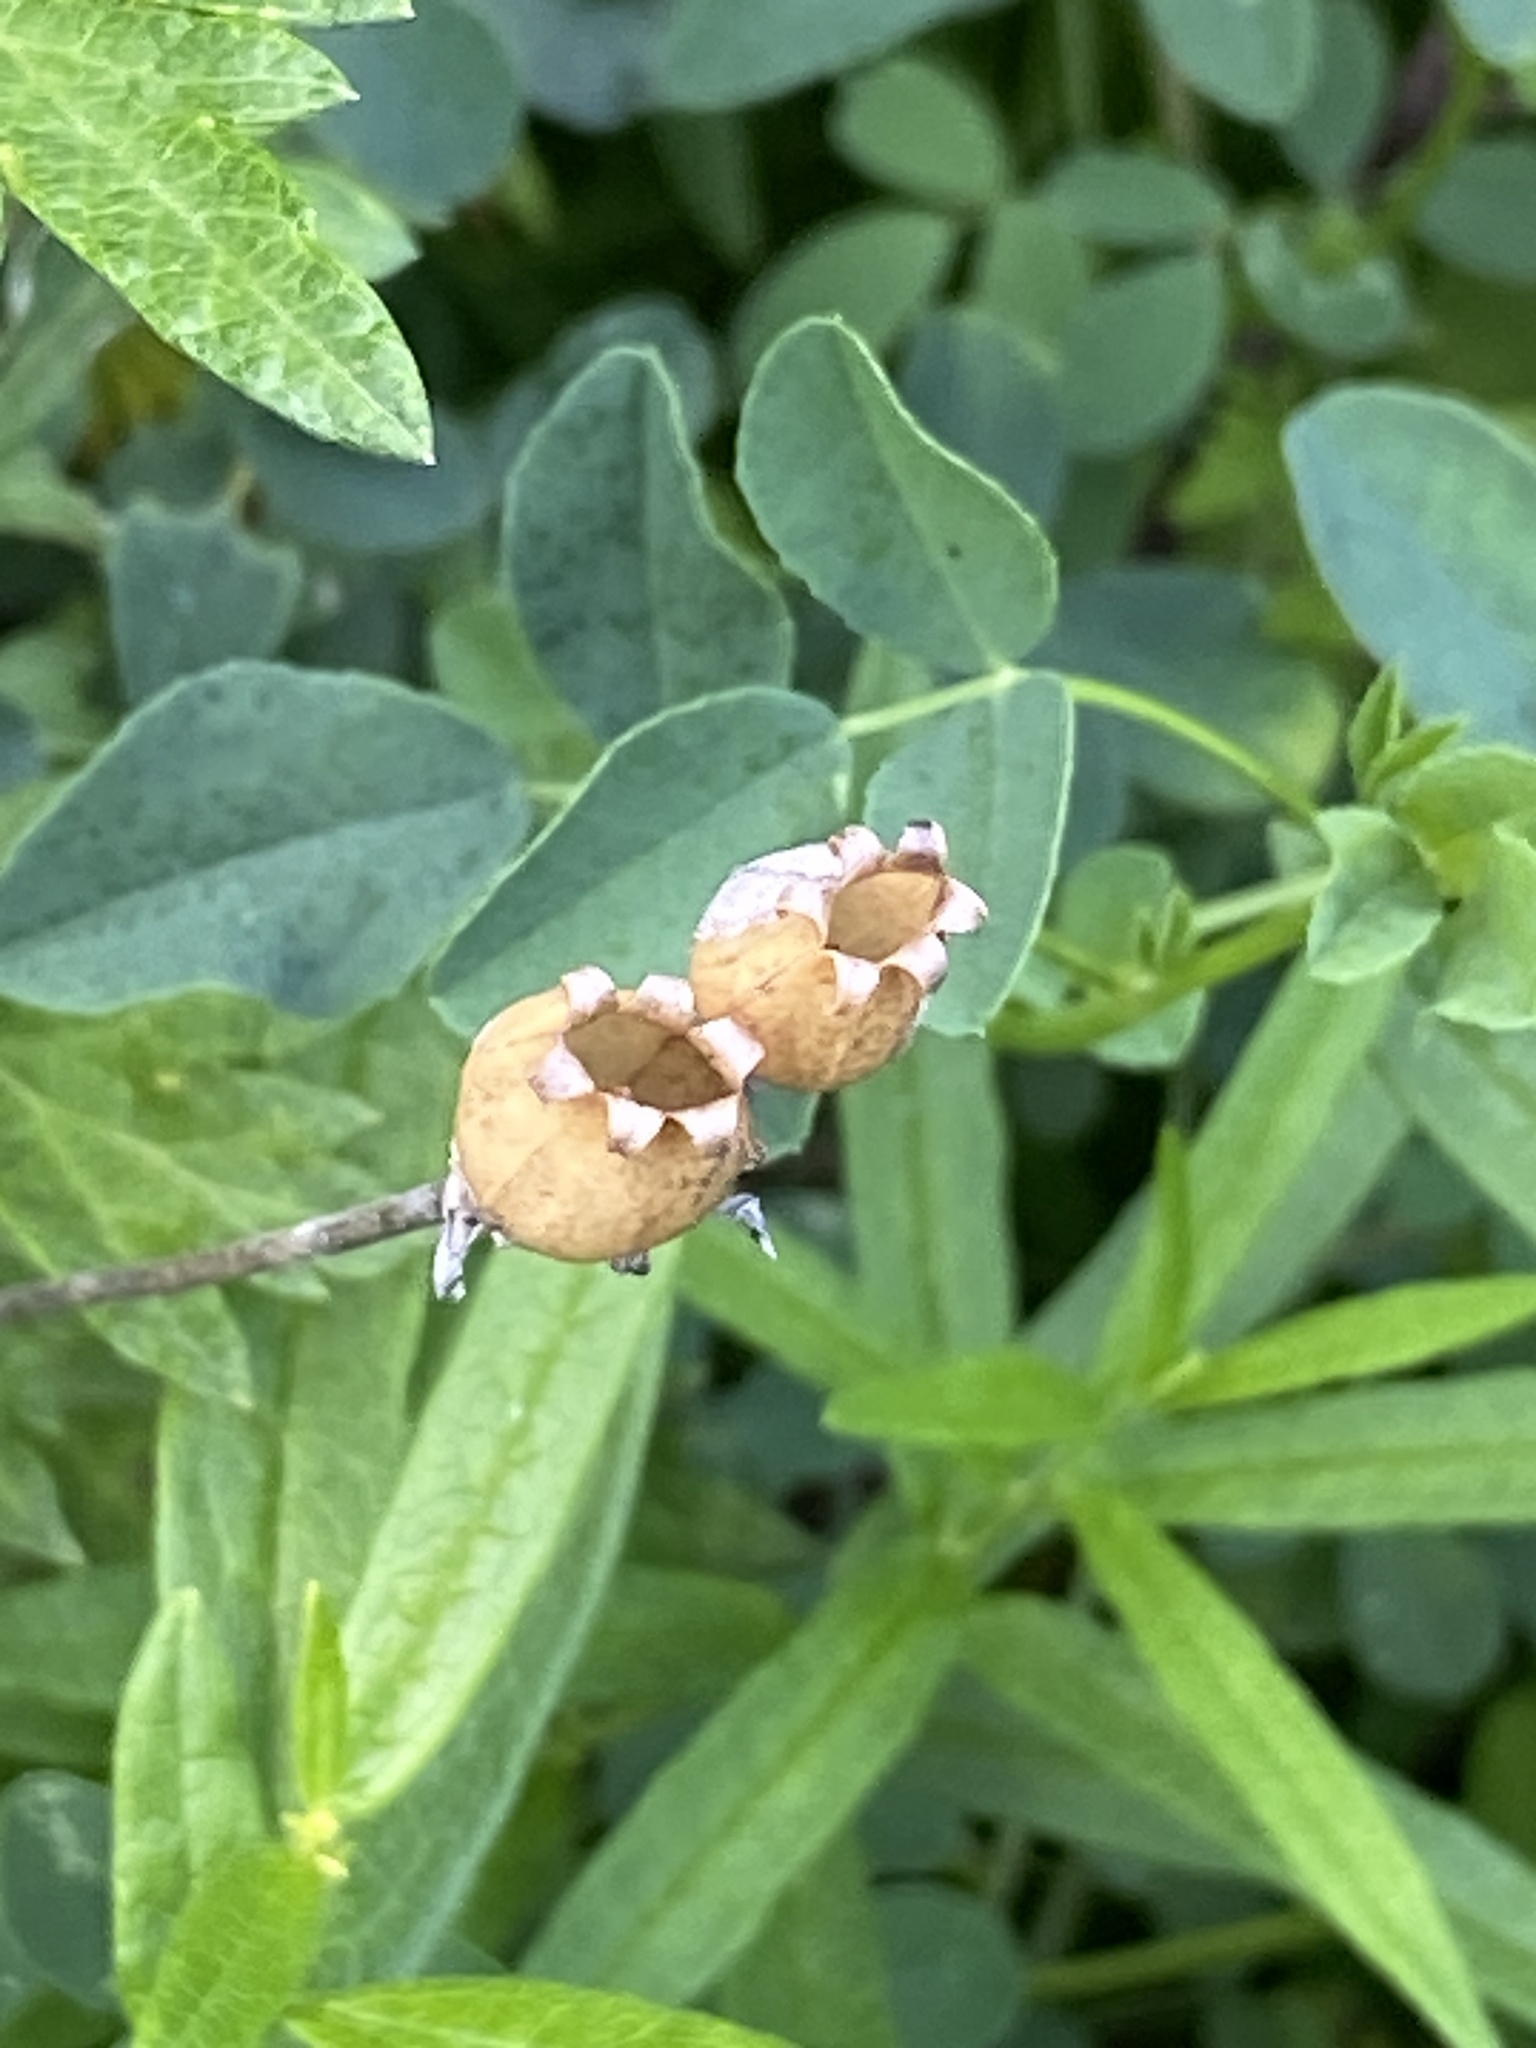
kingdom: Plantae
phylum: Tracheophyta
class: Magnoliopsida
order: Caryophyllales
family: Caryophyllaceae
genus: Silene
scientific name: Silene latifolia
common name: White campion
